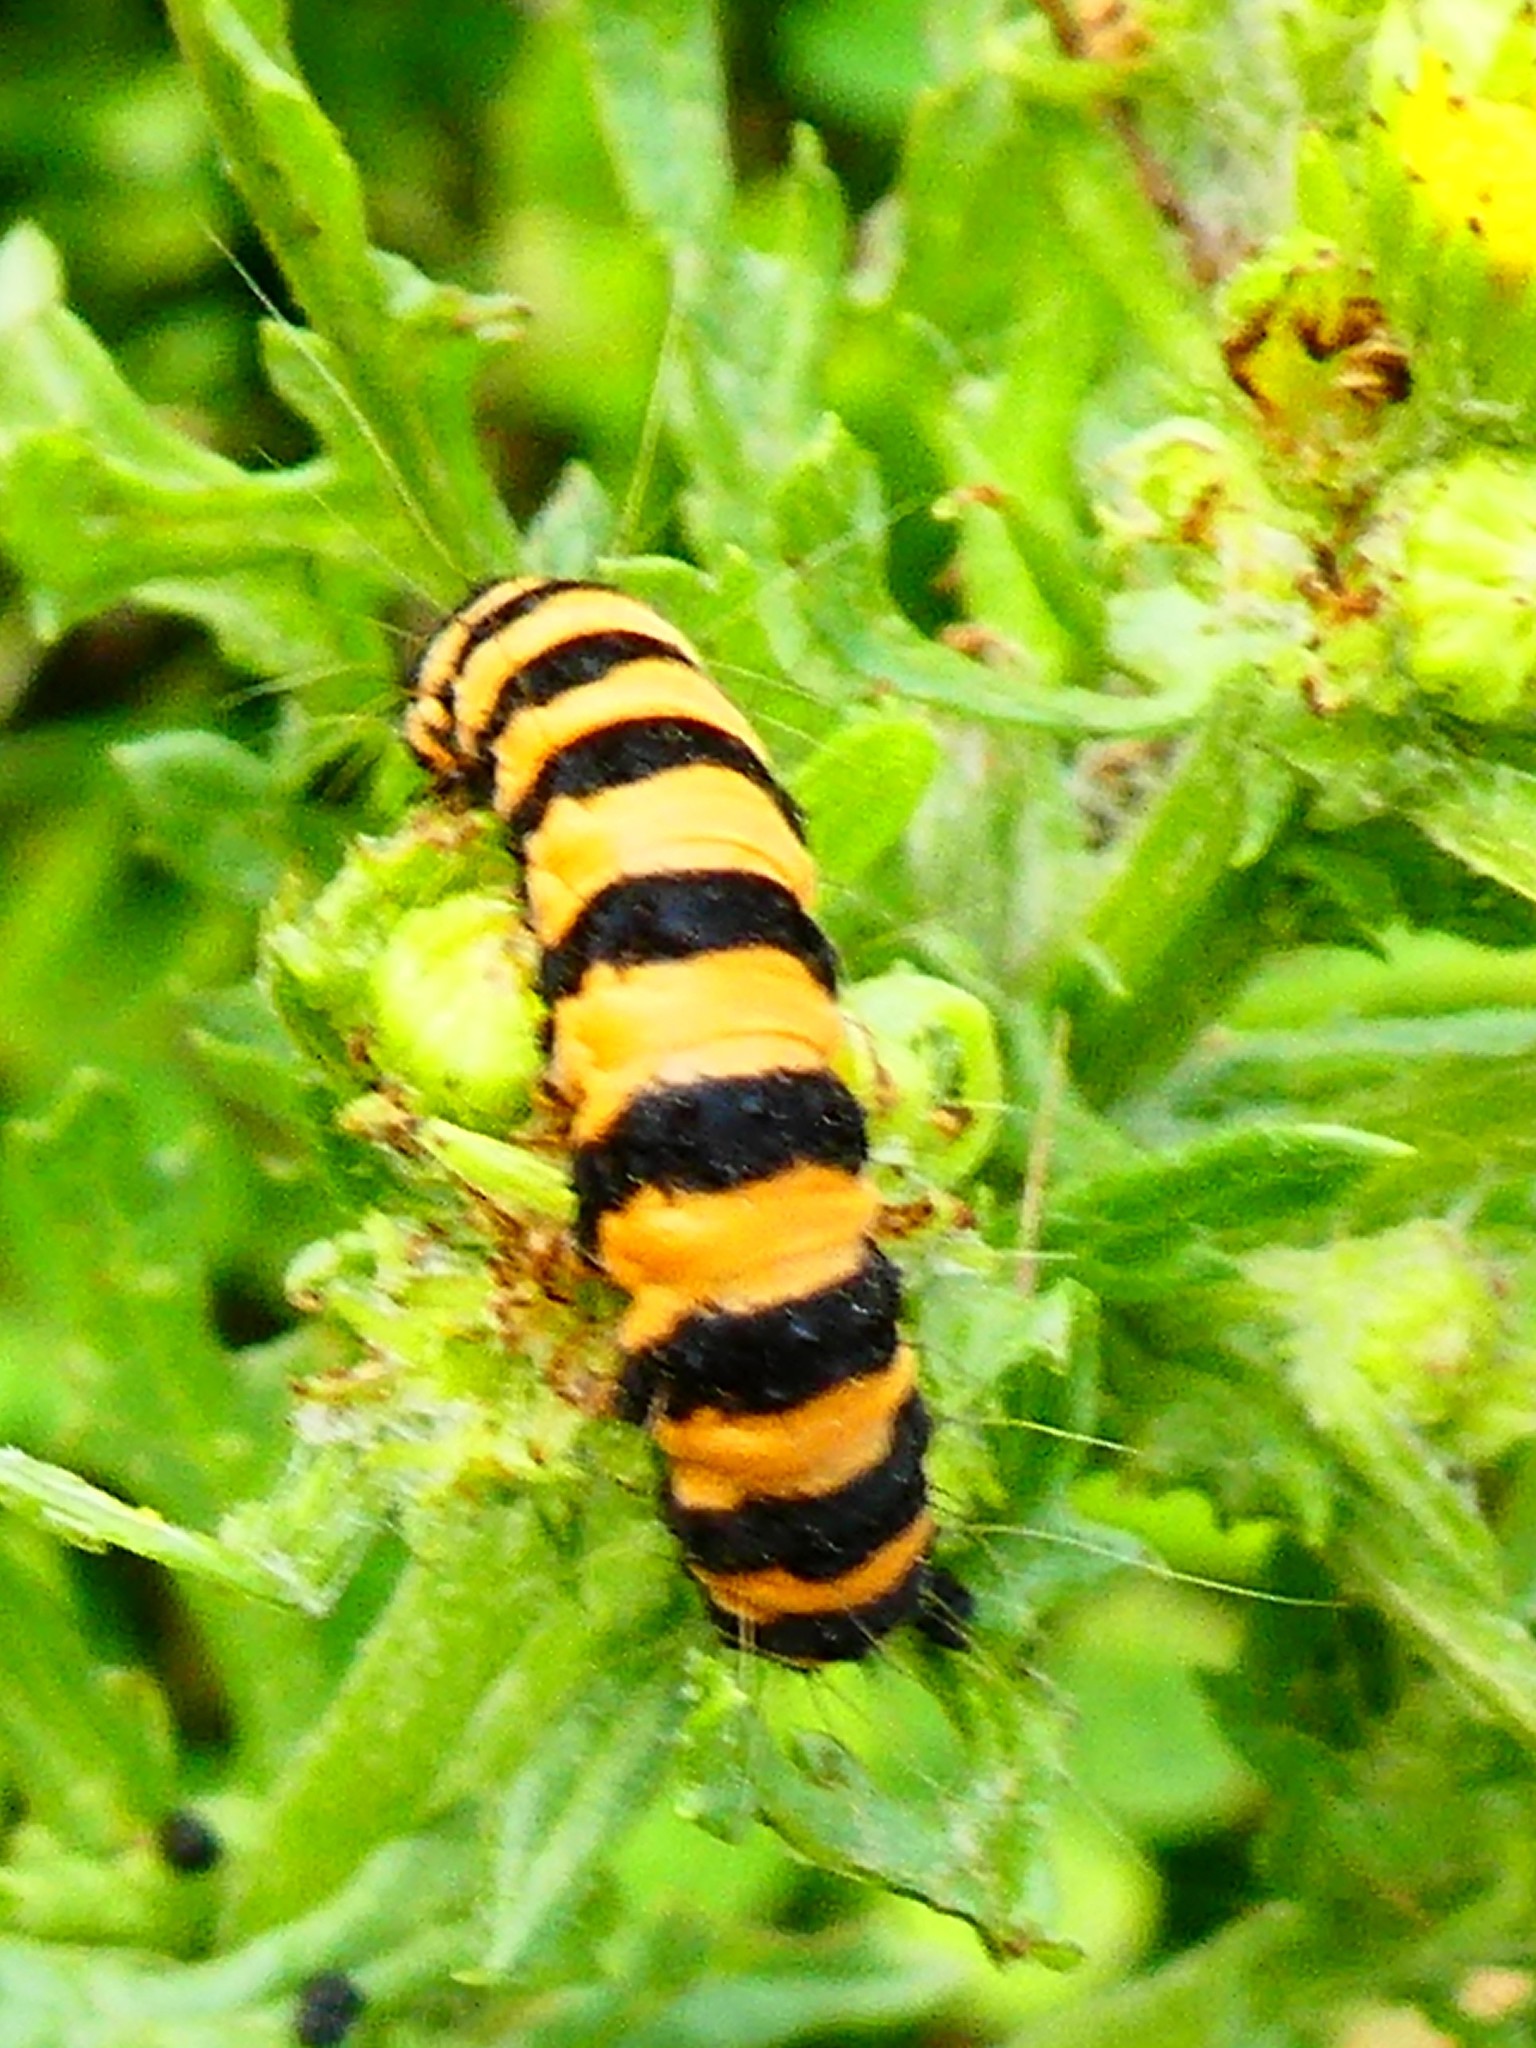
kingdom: Animalia
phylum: Arthropoda
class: Insecta
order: Lepidoptera
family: Erebidae
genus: Tyria
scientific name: Tyria jacobaeae
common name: Cinnabar
